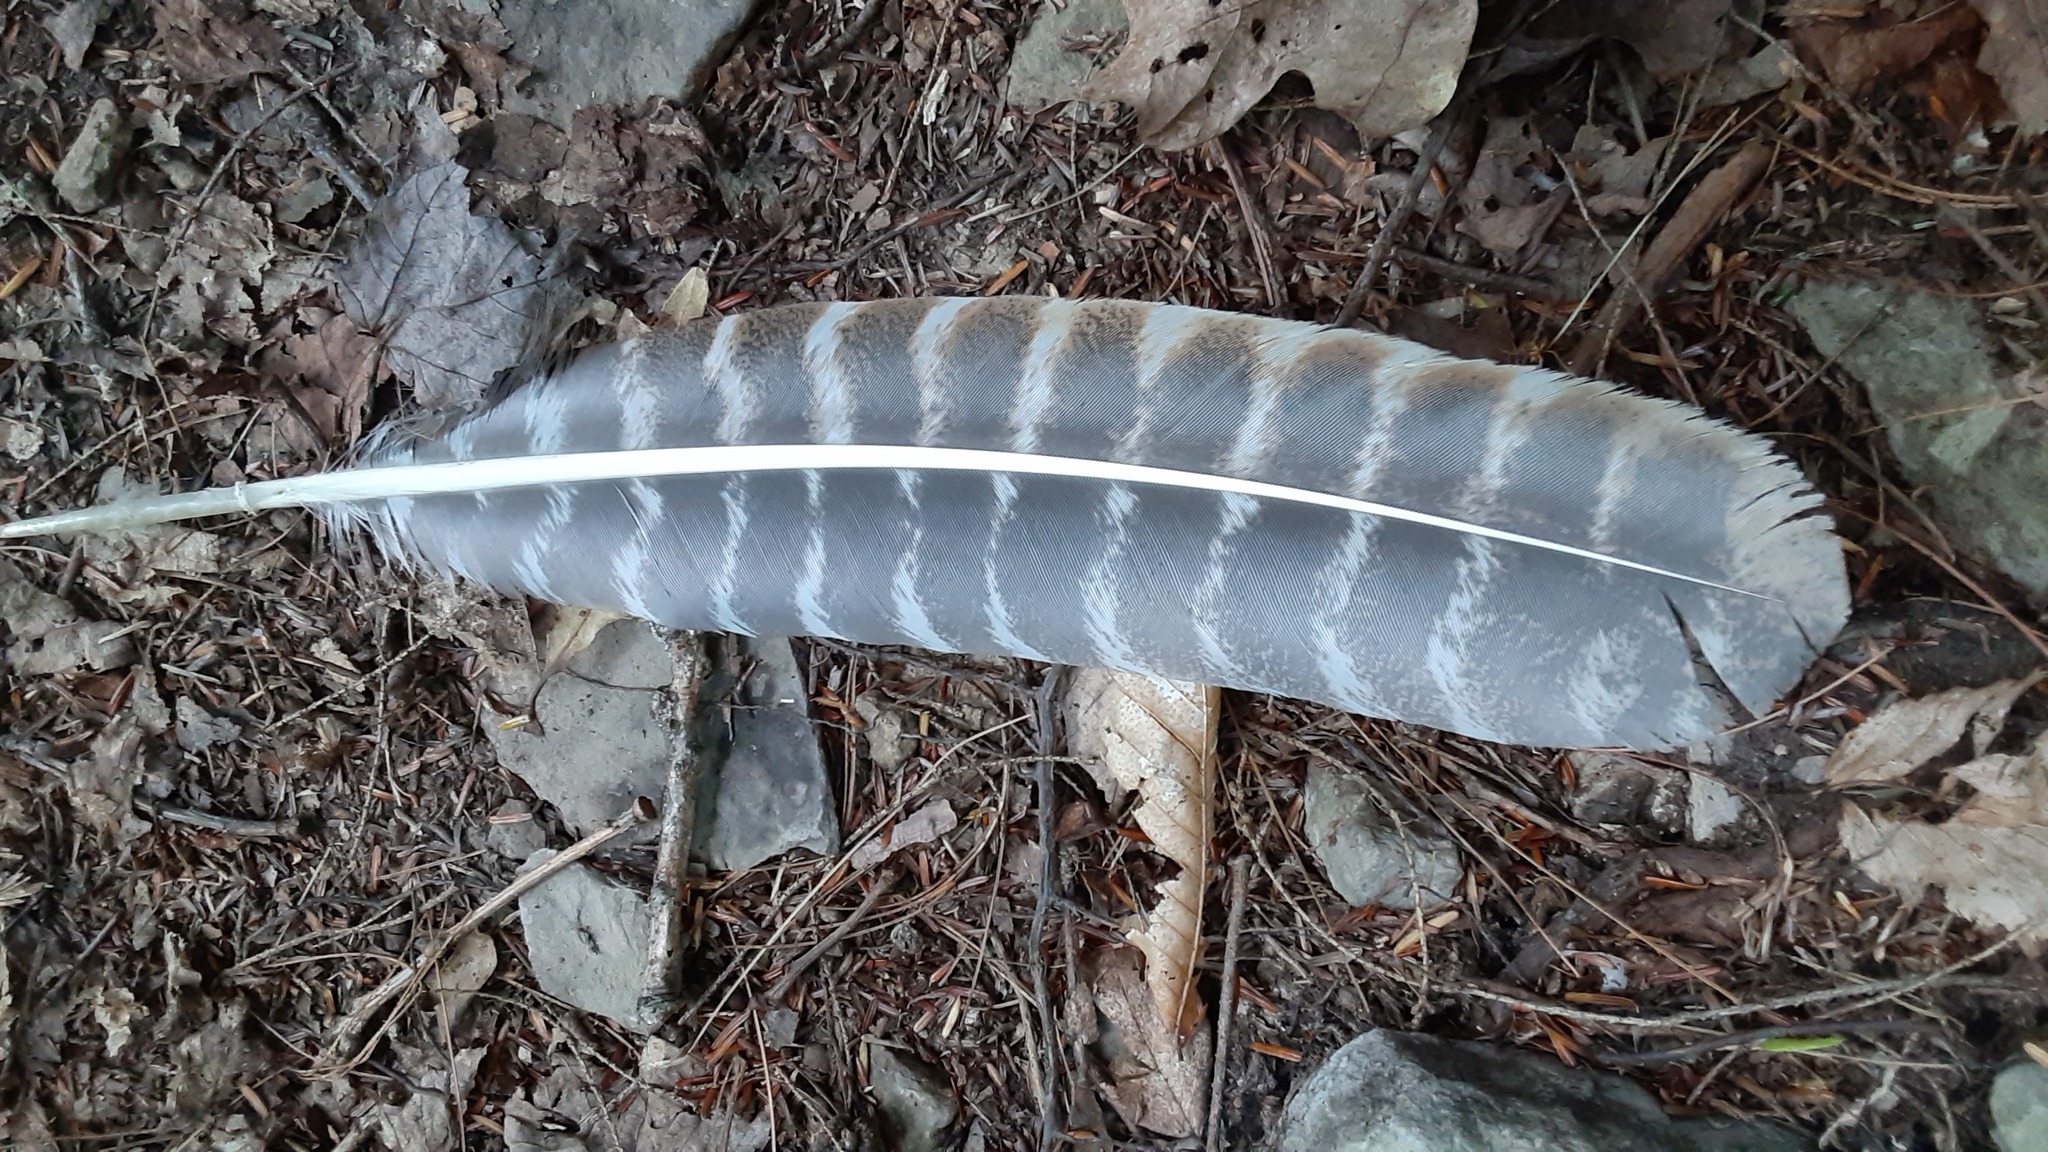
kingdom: Animalia
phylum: Chordata
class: Aves
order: Galliformes
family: Phasianidae
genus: Meleagris
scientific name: Meleagris gallopavo
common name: Wild turkey
